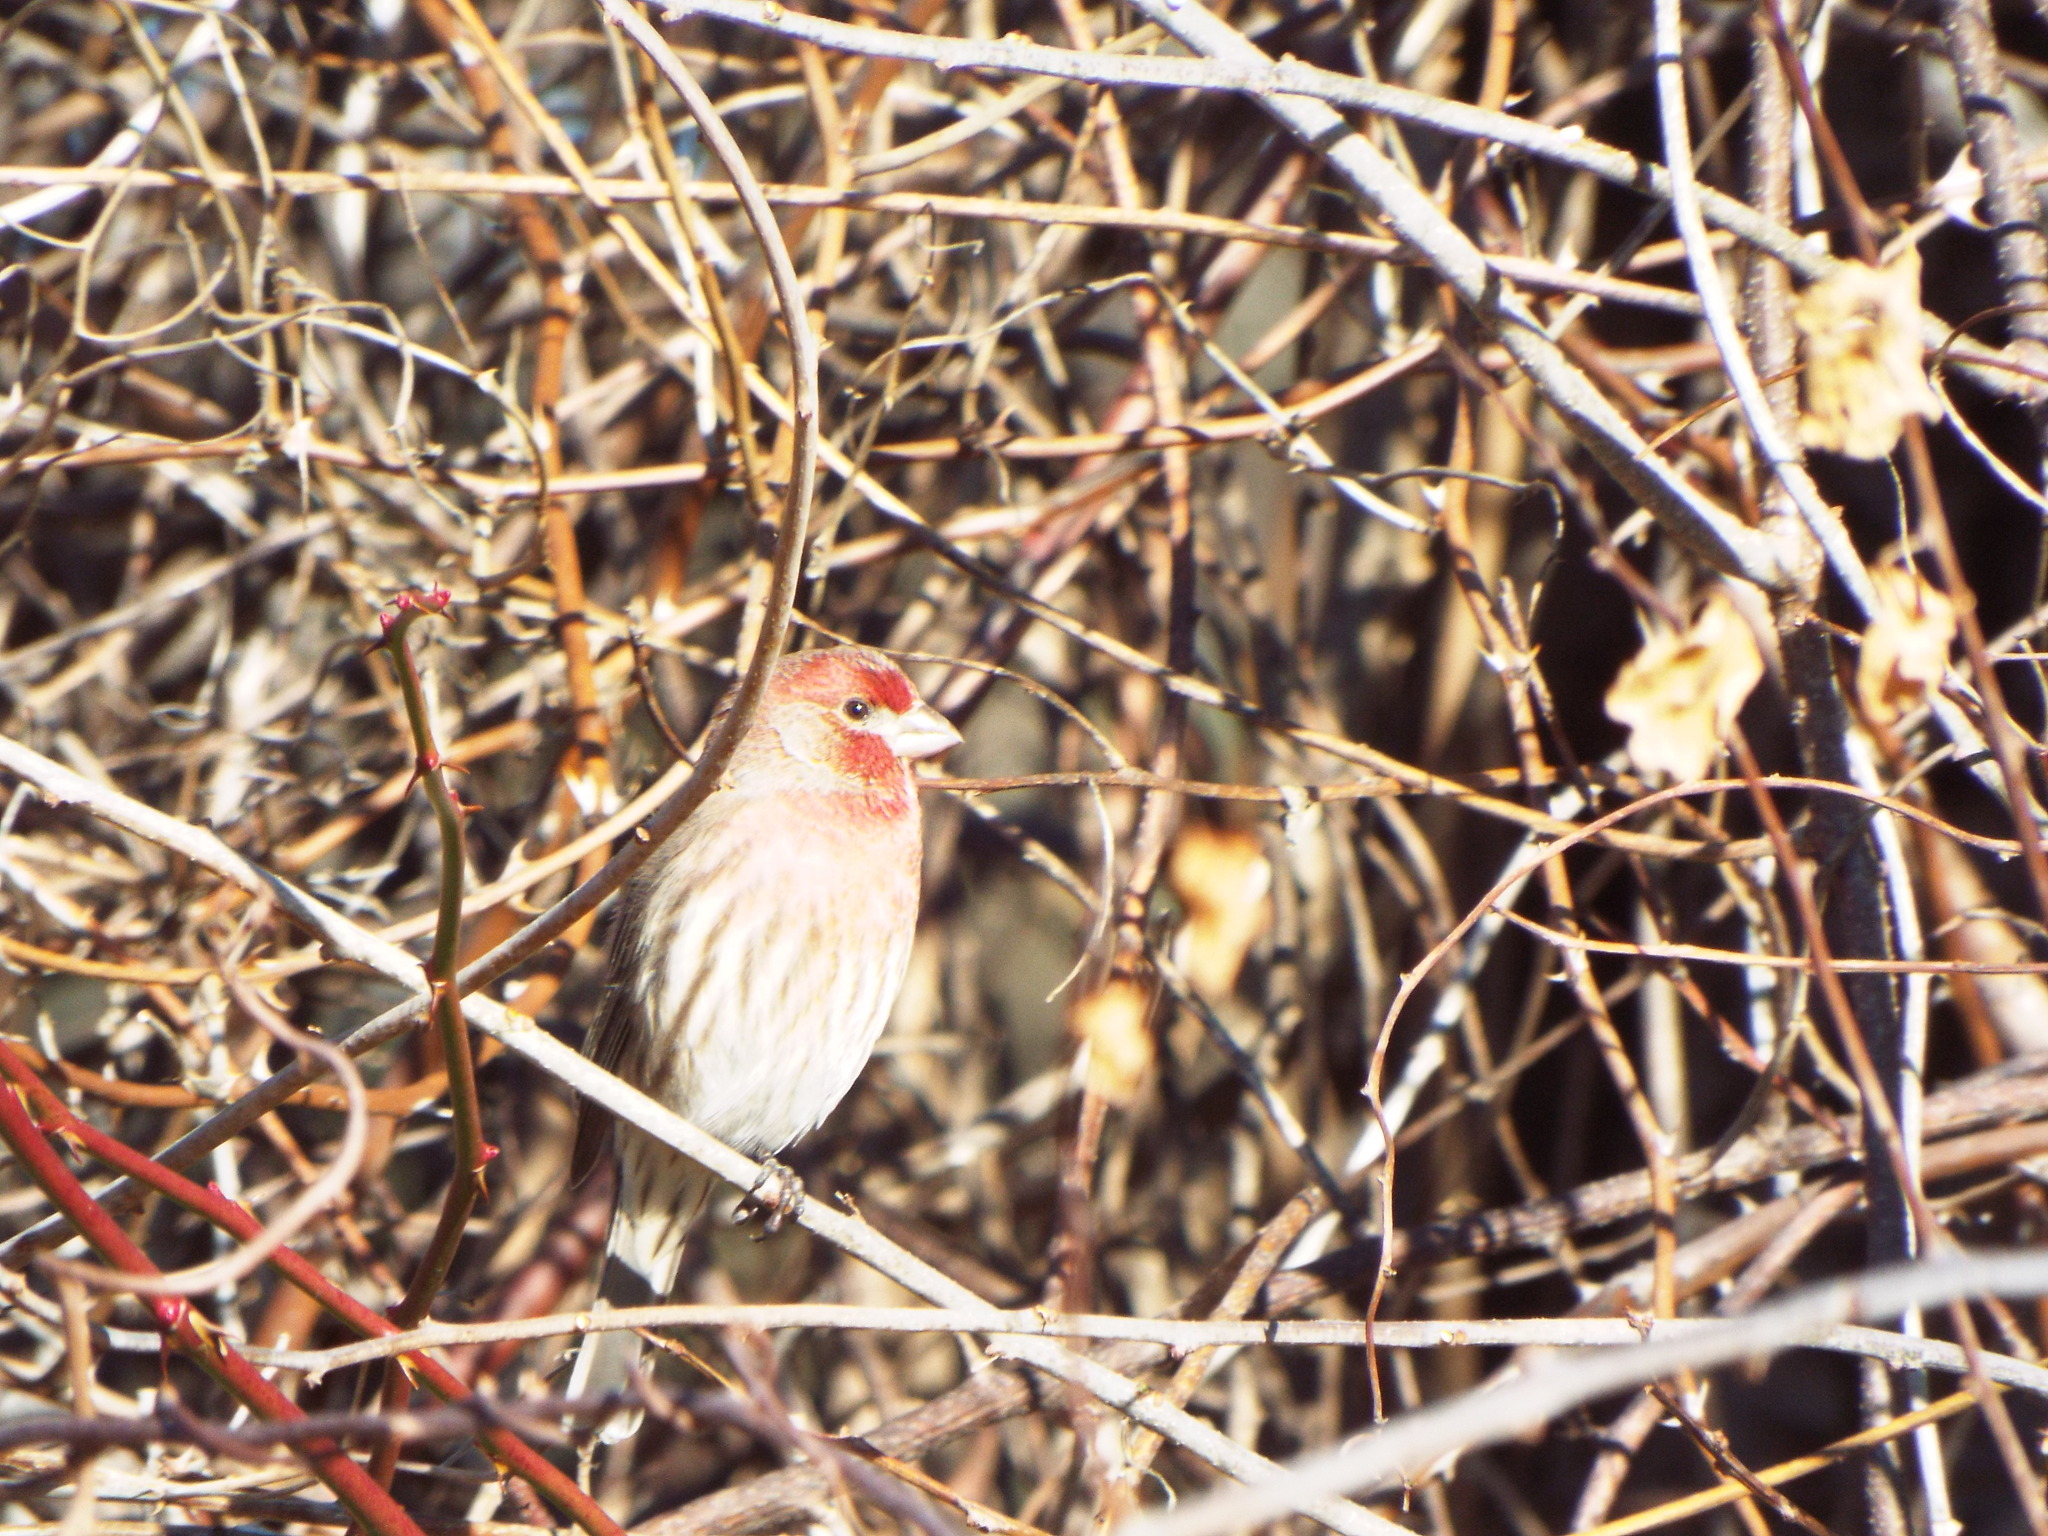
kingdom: Animalia
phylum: Chordata
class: Aves
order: Passeriformes
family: Fringillidae
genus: Haemorhous
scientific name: Haemorhous mexicanus
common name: House finch
